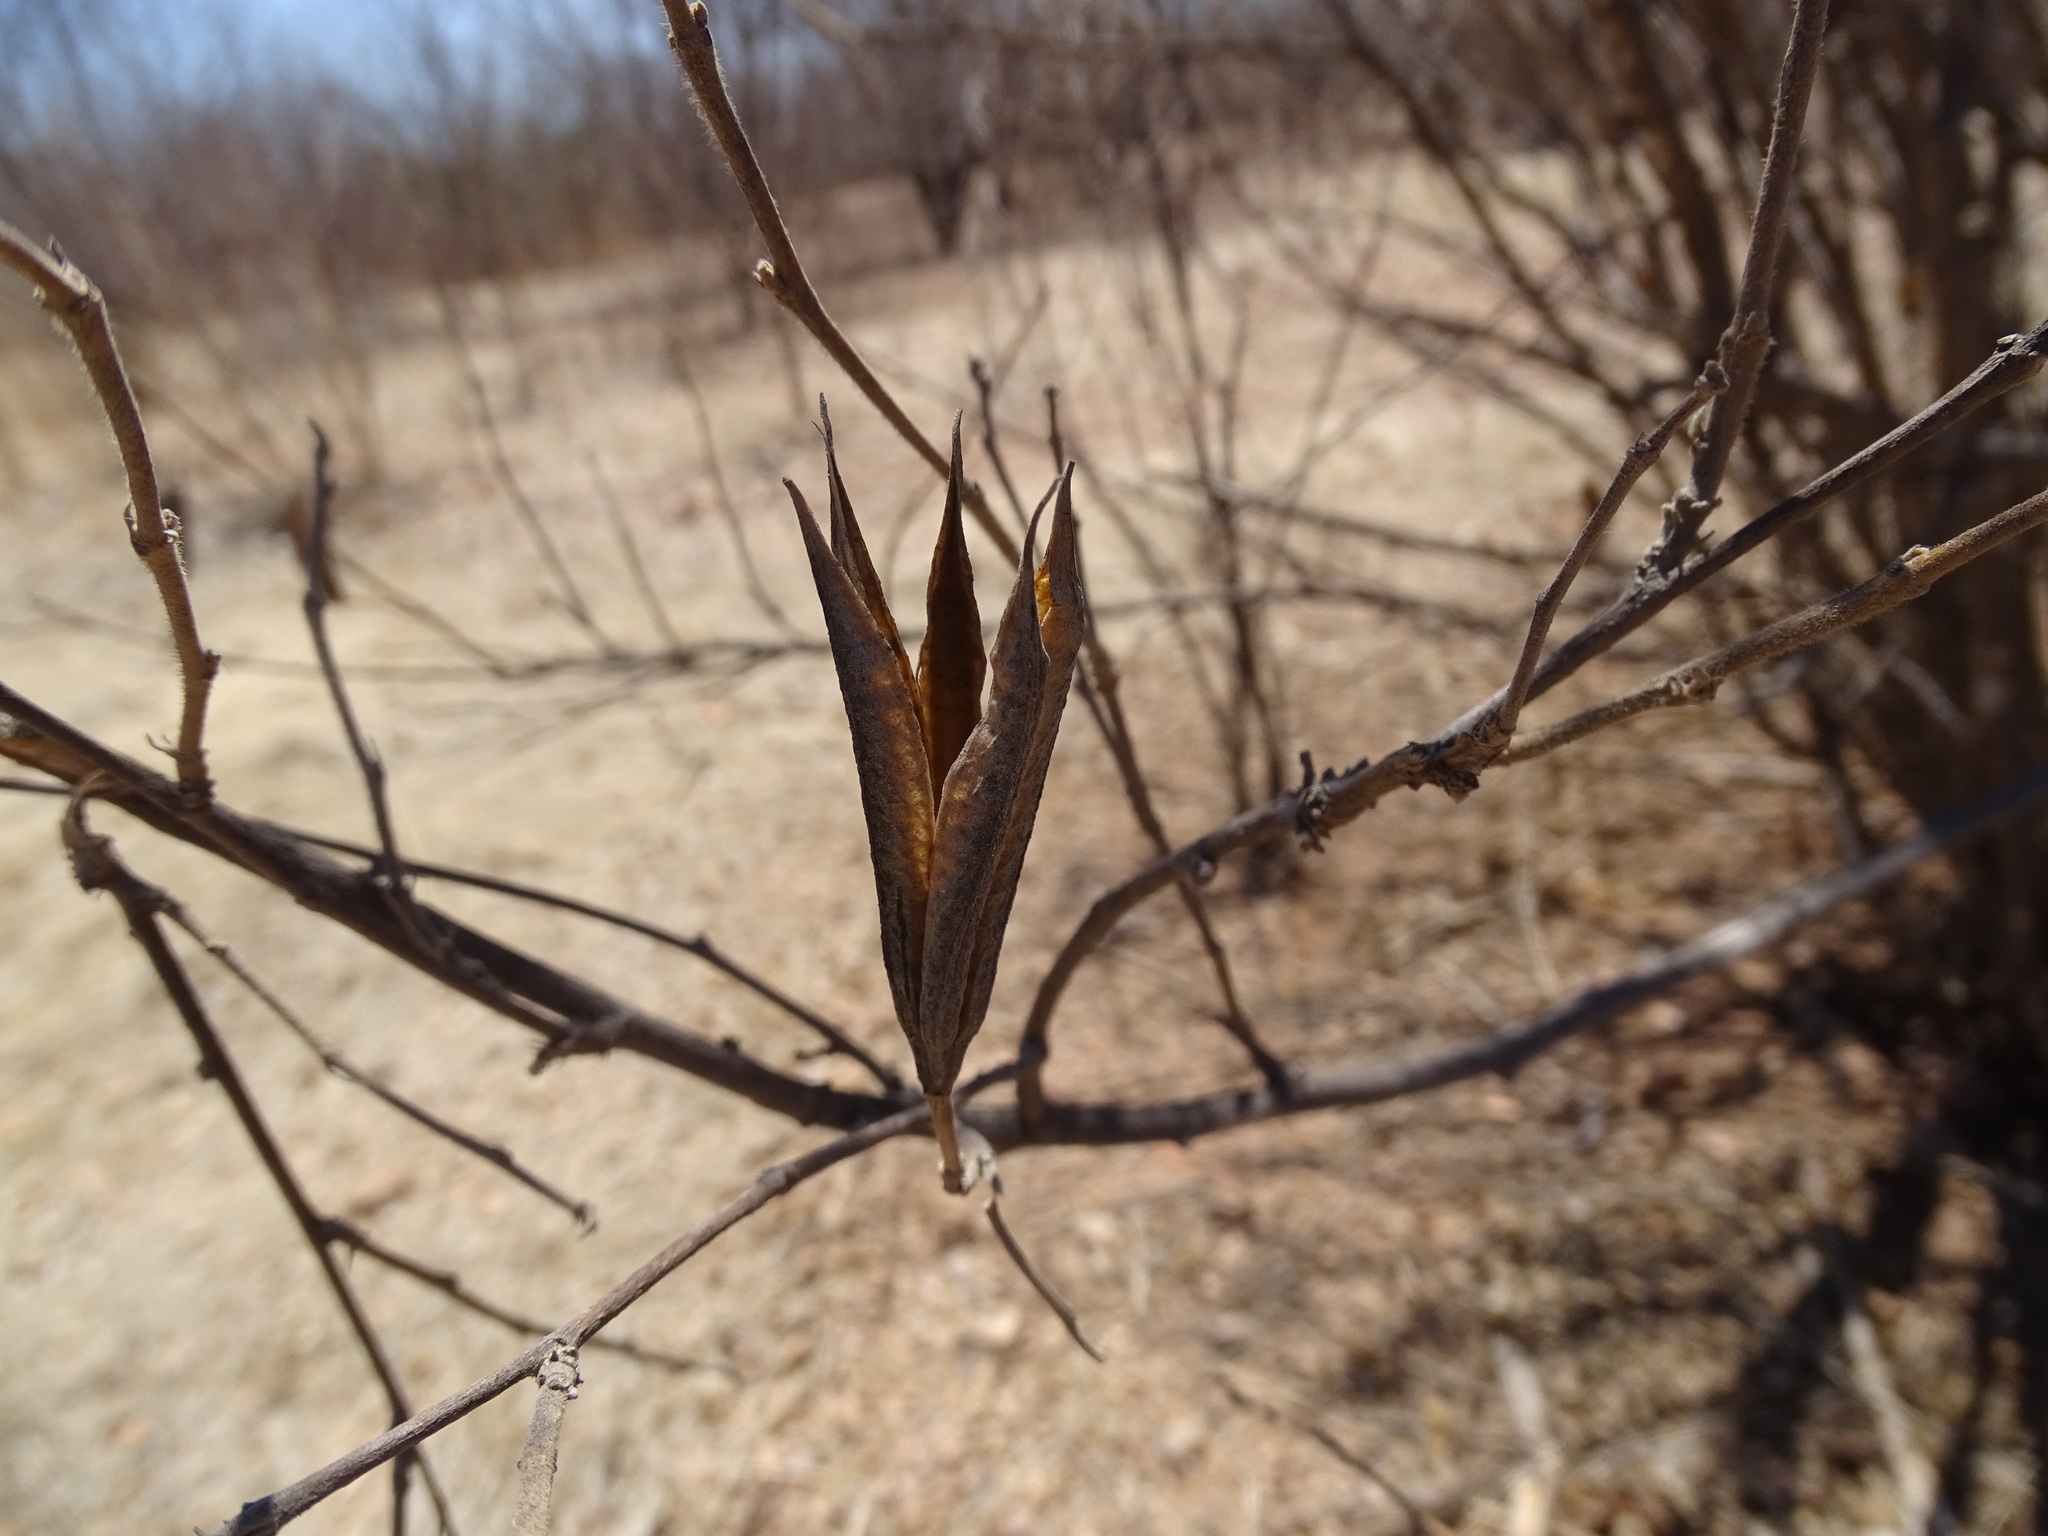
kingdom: Plantae
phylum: Tracheophyta
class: Magnoliopsida
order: Malvales
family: Malvaceae
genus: Helicteres
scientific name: Helicteres vegae
